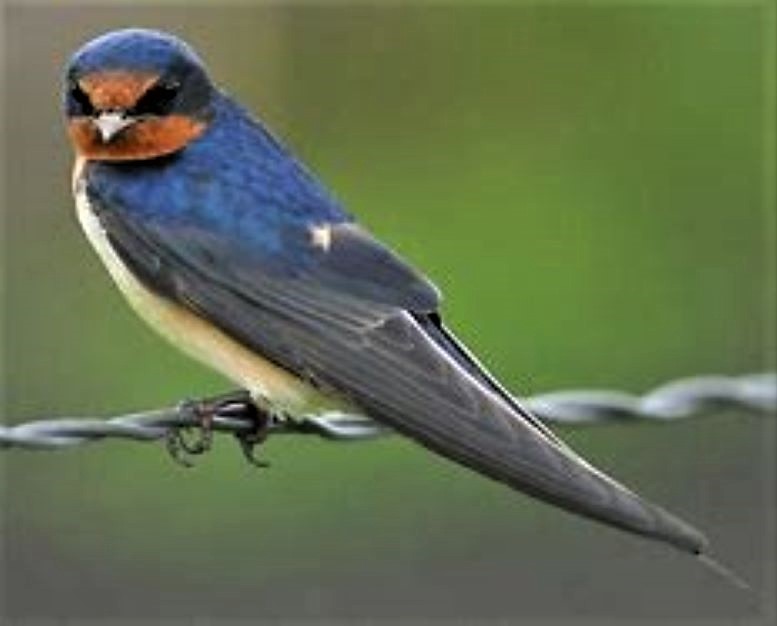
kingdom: Animalia
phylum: Chordata
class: Aves
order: Passeriformes
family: Hirundinidae
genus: Hirundo
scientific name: Hirundo rustica
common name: Barn swallow
